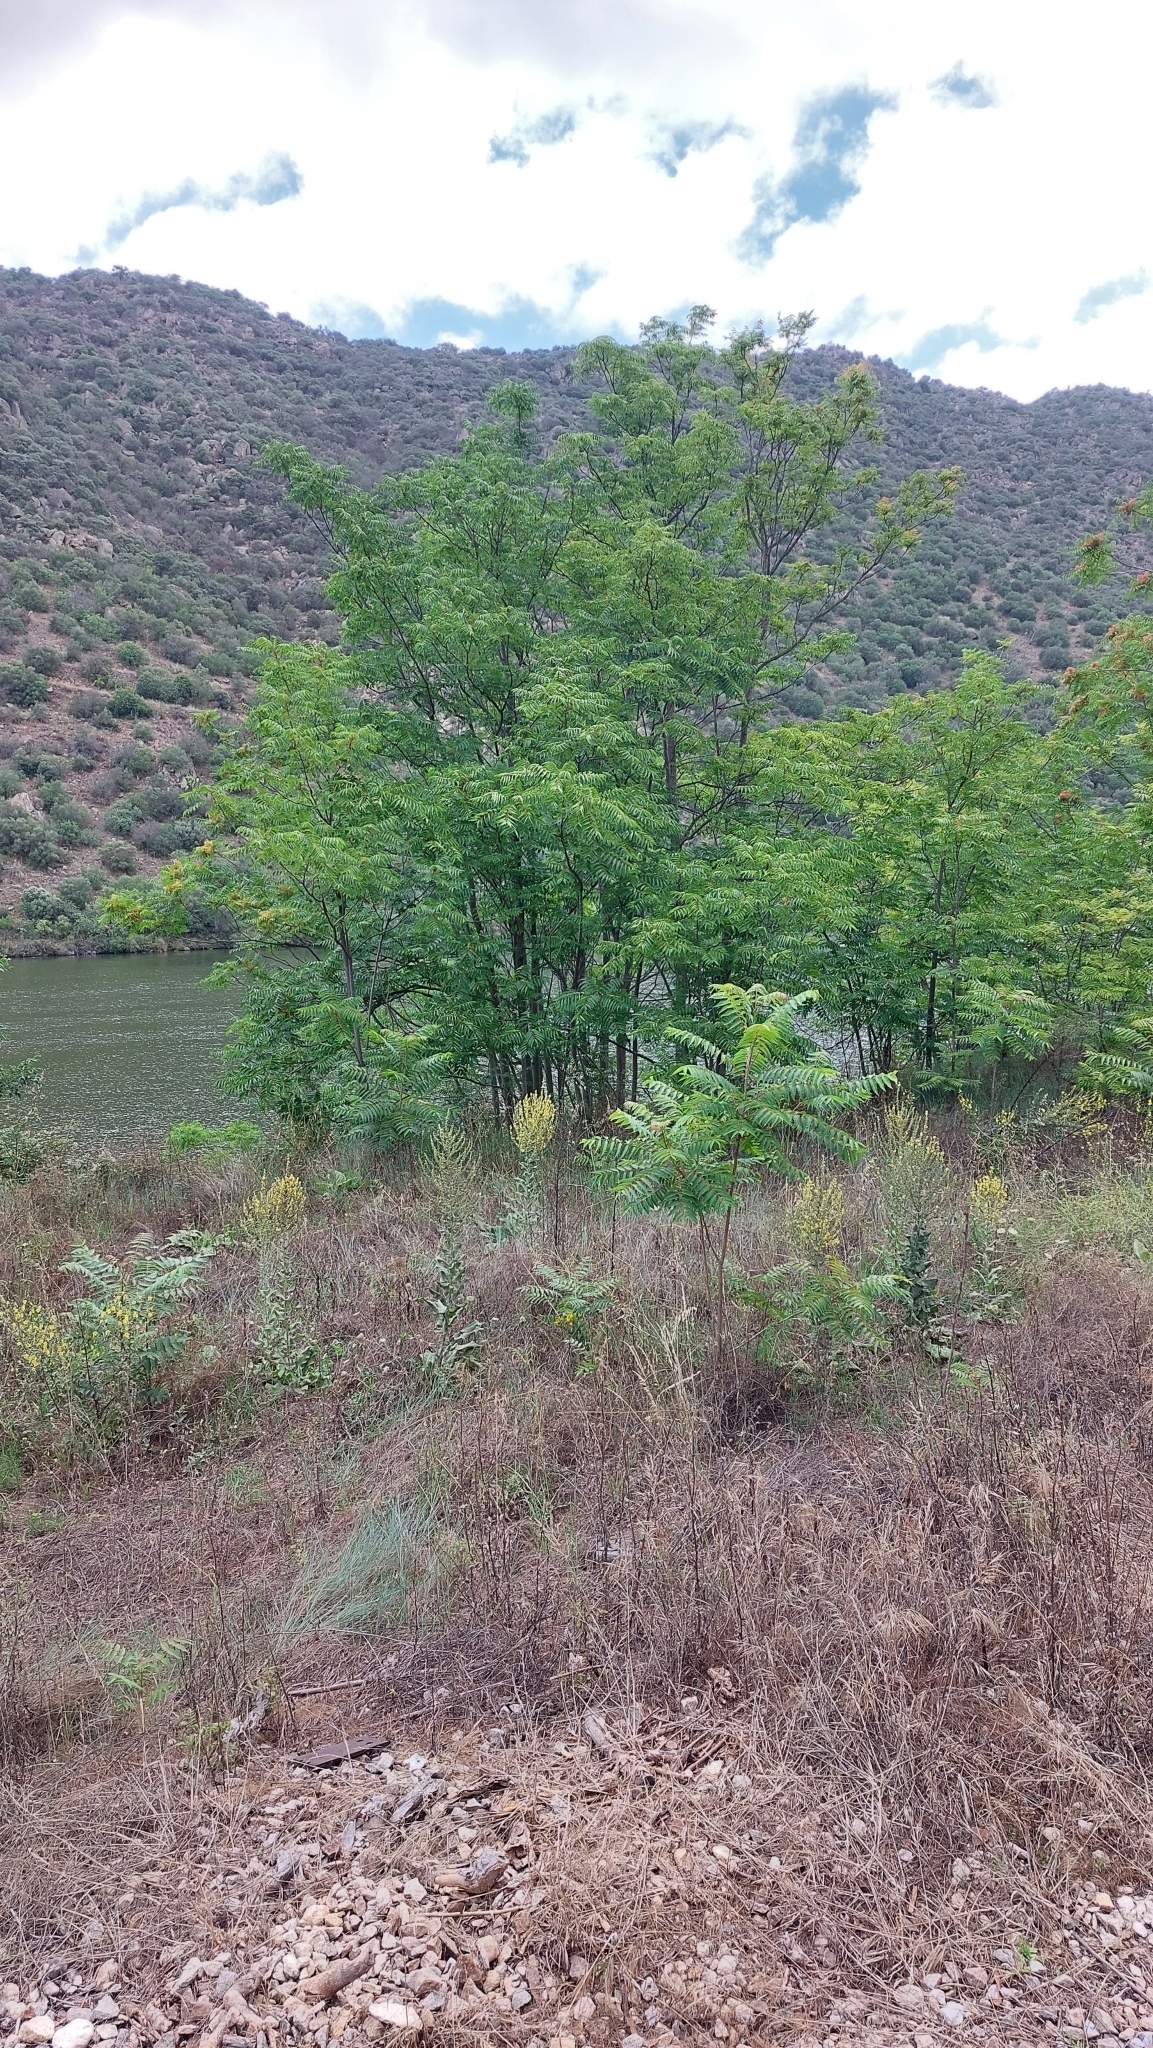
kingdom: Plantae
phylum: Tracheophyta
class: Magnoliopsida
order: Sapindales
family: Simaroubaceae
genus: Ailanthus
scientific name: Ailanthus altissima
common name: Tree-of-heaven
